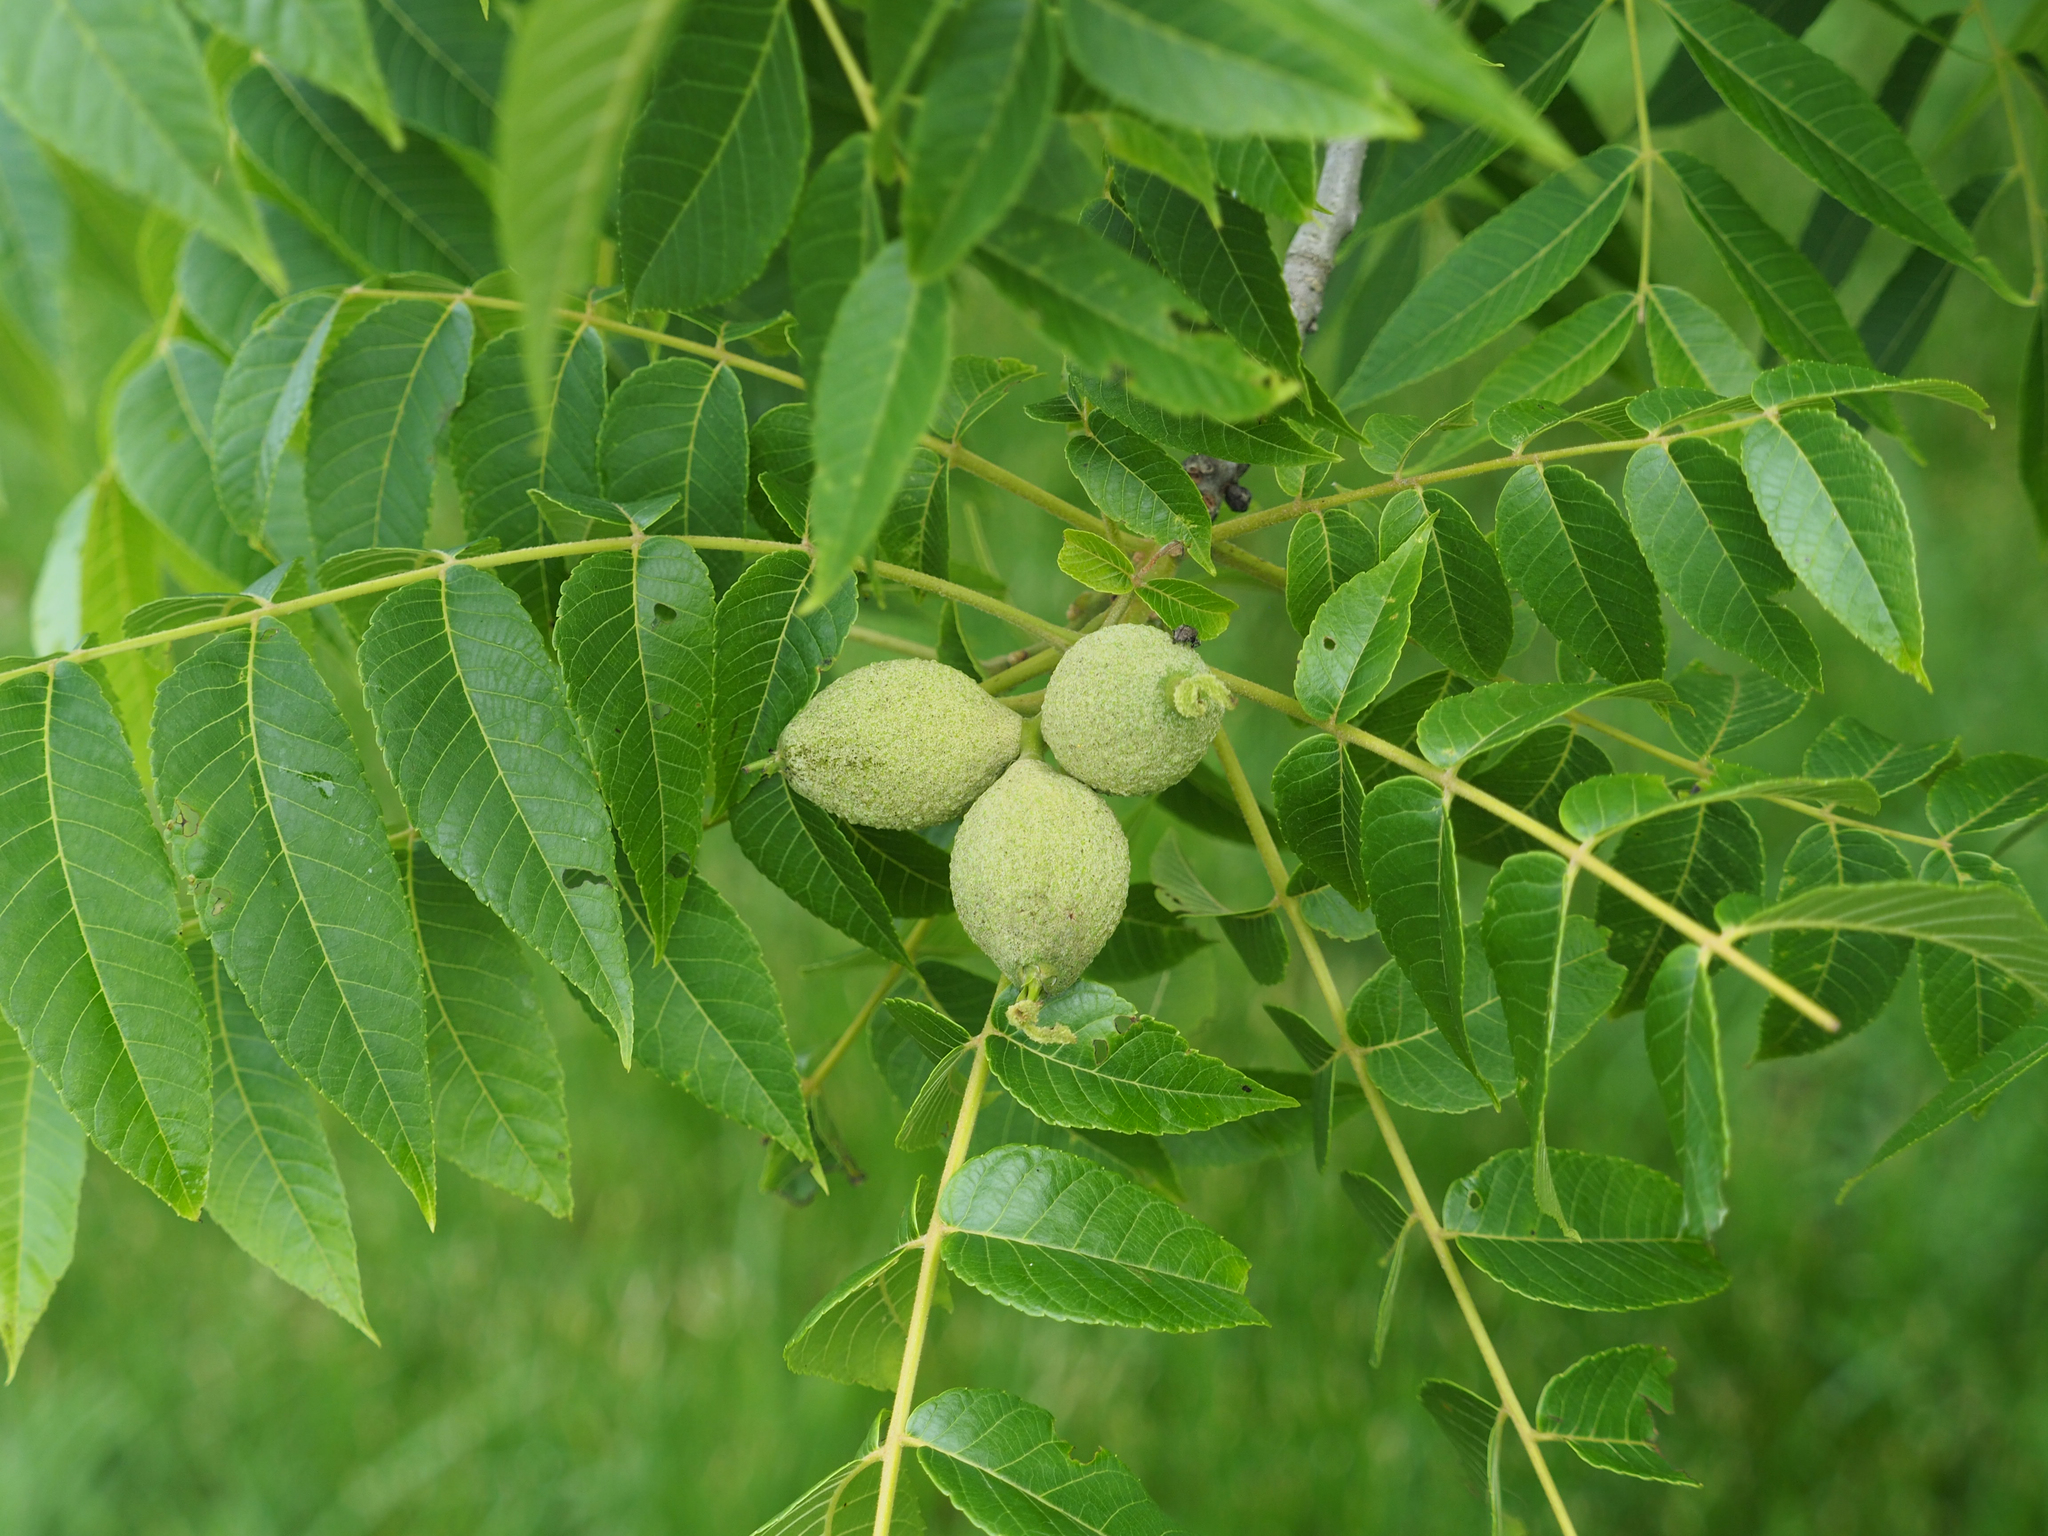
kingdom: Plantae
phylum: Tracheophyta
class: Magnoliopsida
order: Fagales
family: Juglandaceae
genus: Juglans
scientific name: Juglans nigra
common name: Black walnut
